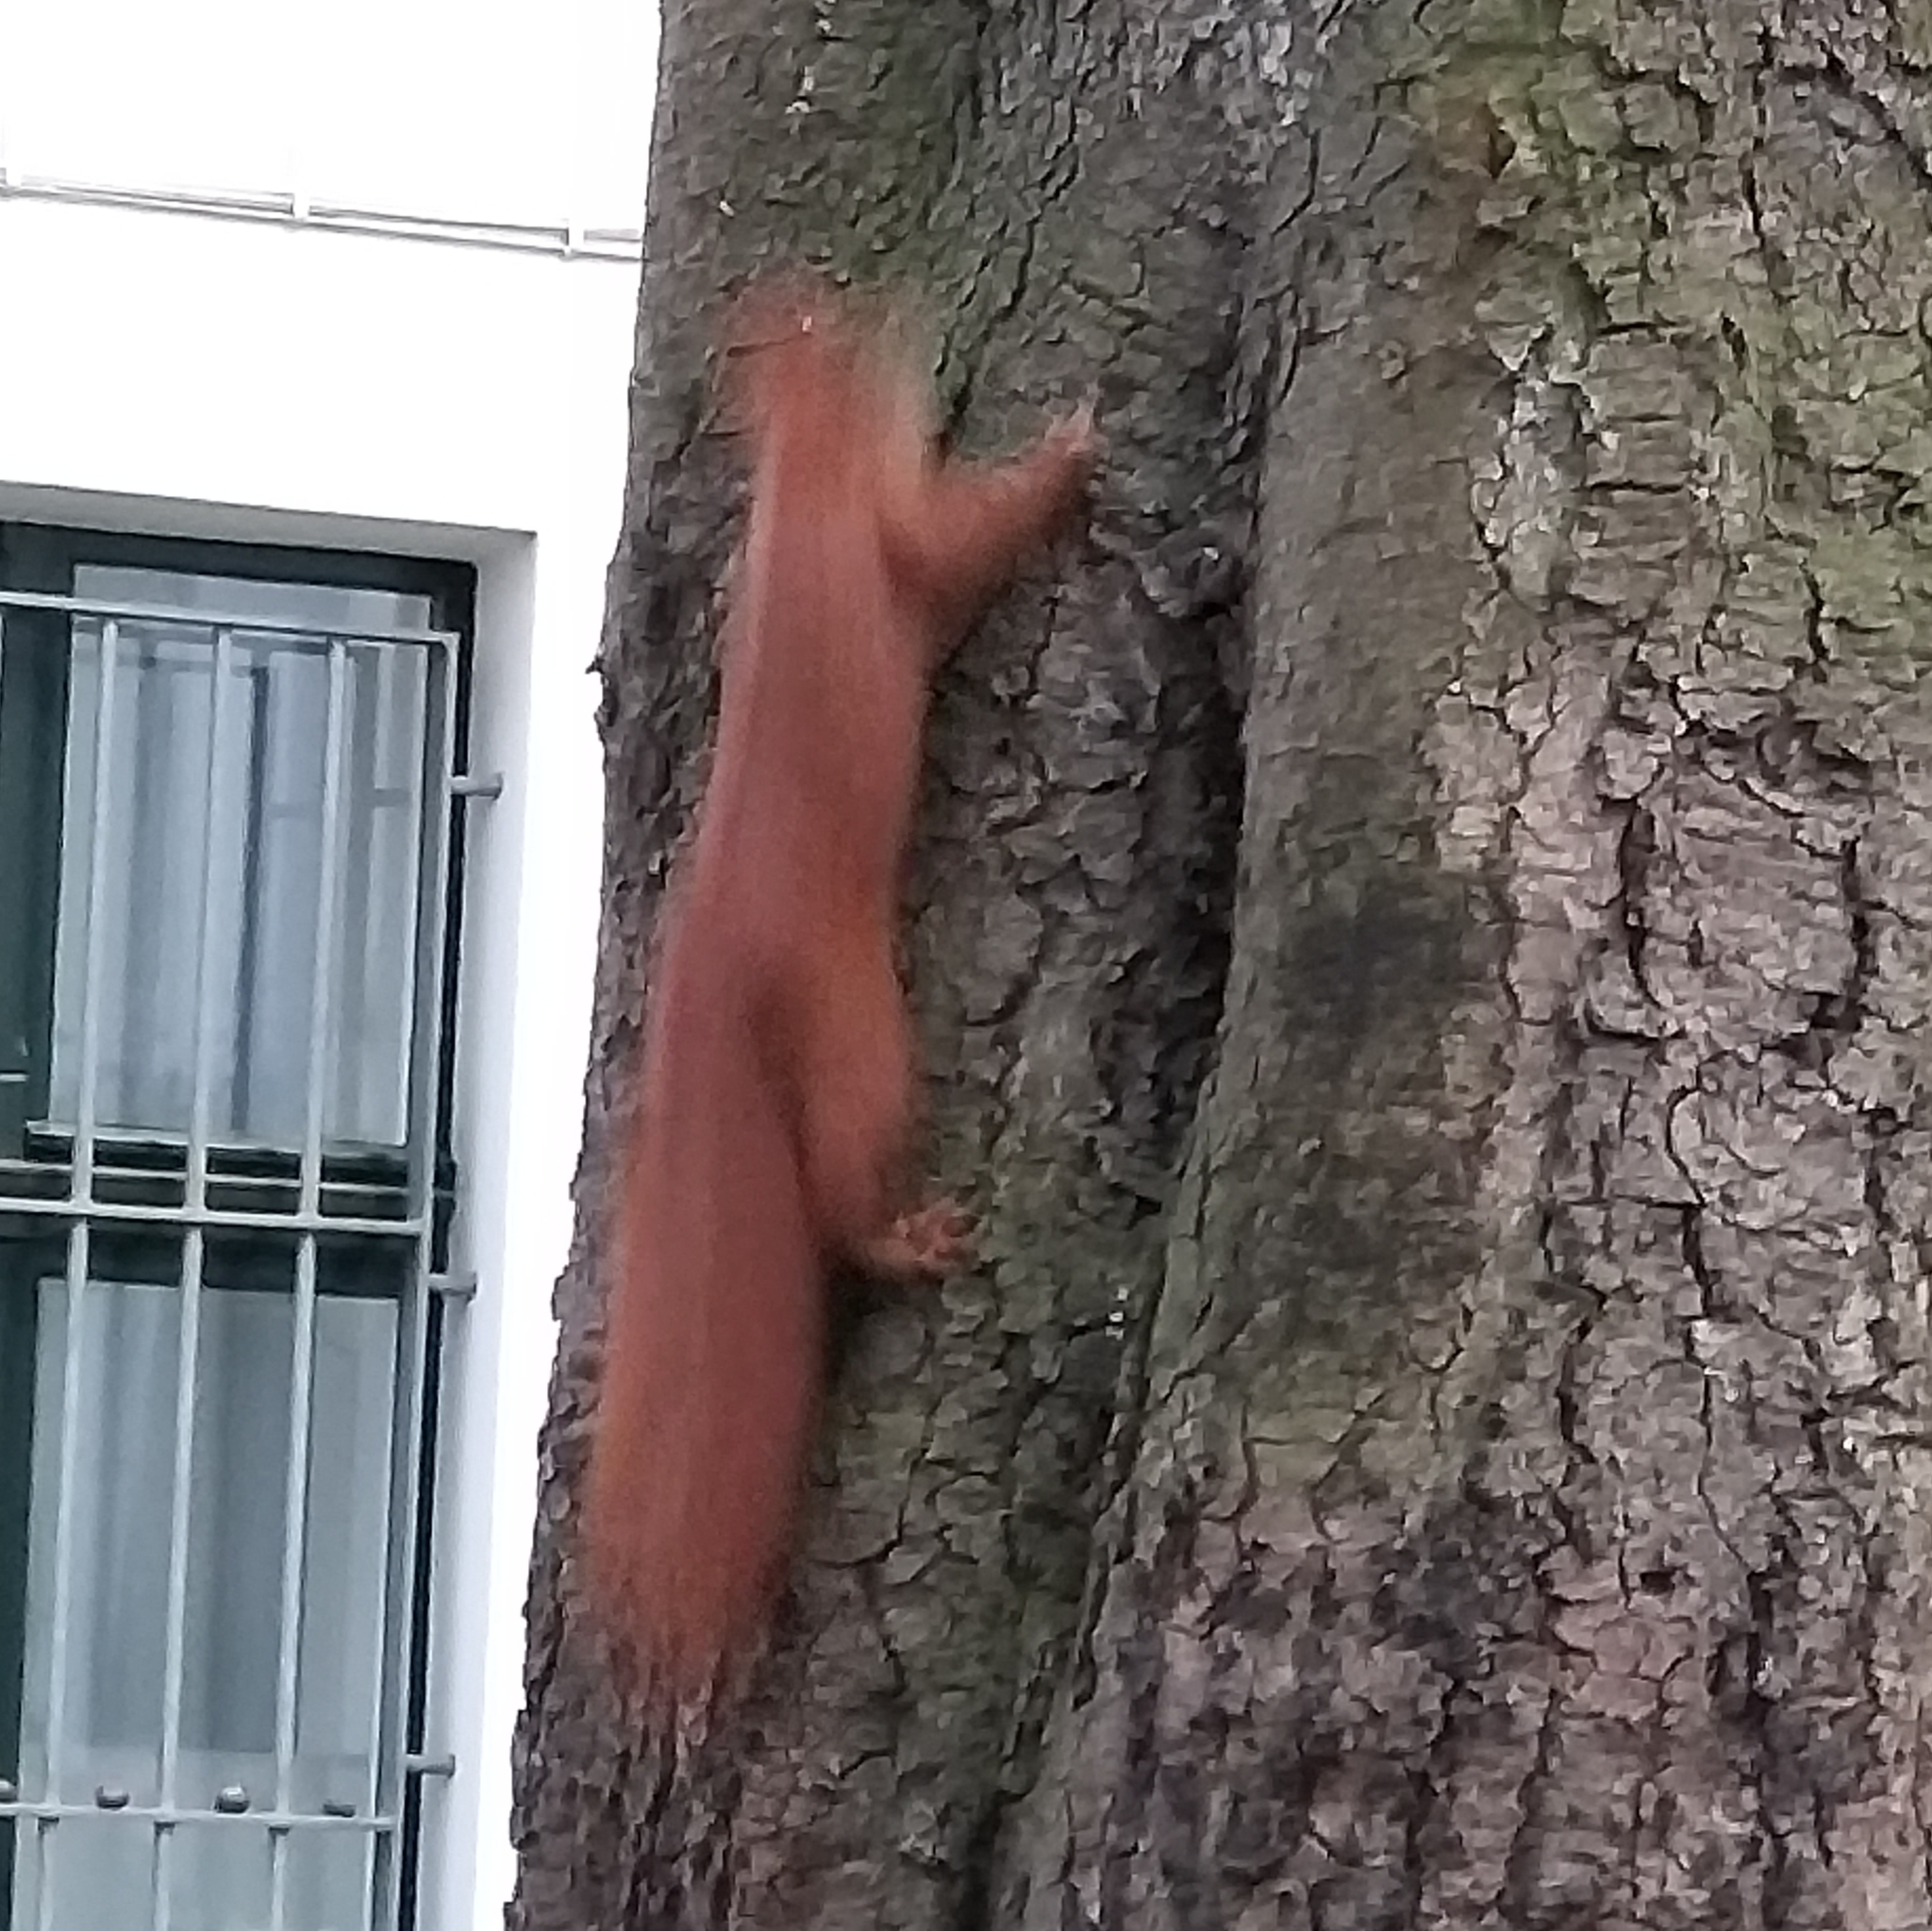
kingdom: Animalia
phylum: Chordata
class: Mammalia
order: Rodentia
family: Sciuridae
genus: Sciurus
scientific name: Sciurus vulgaris
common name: Eurasian red squirrel
